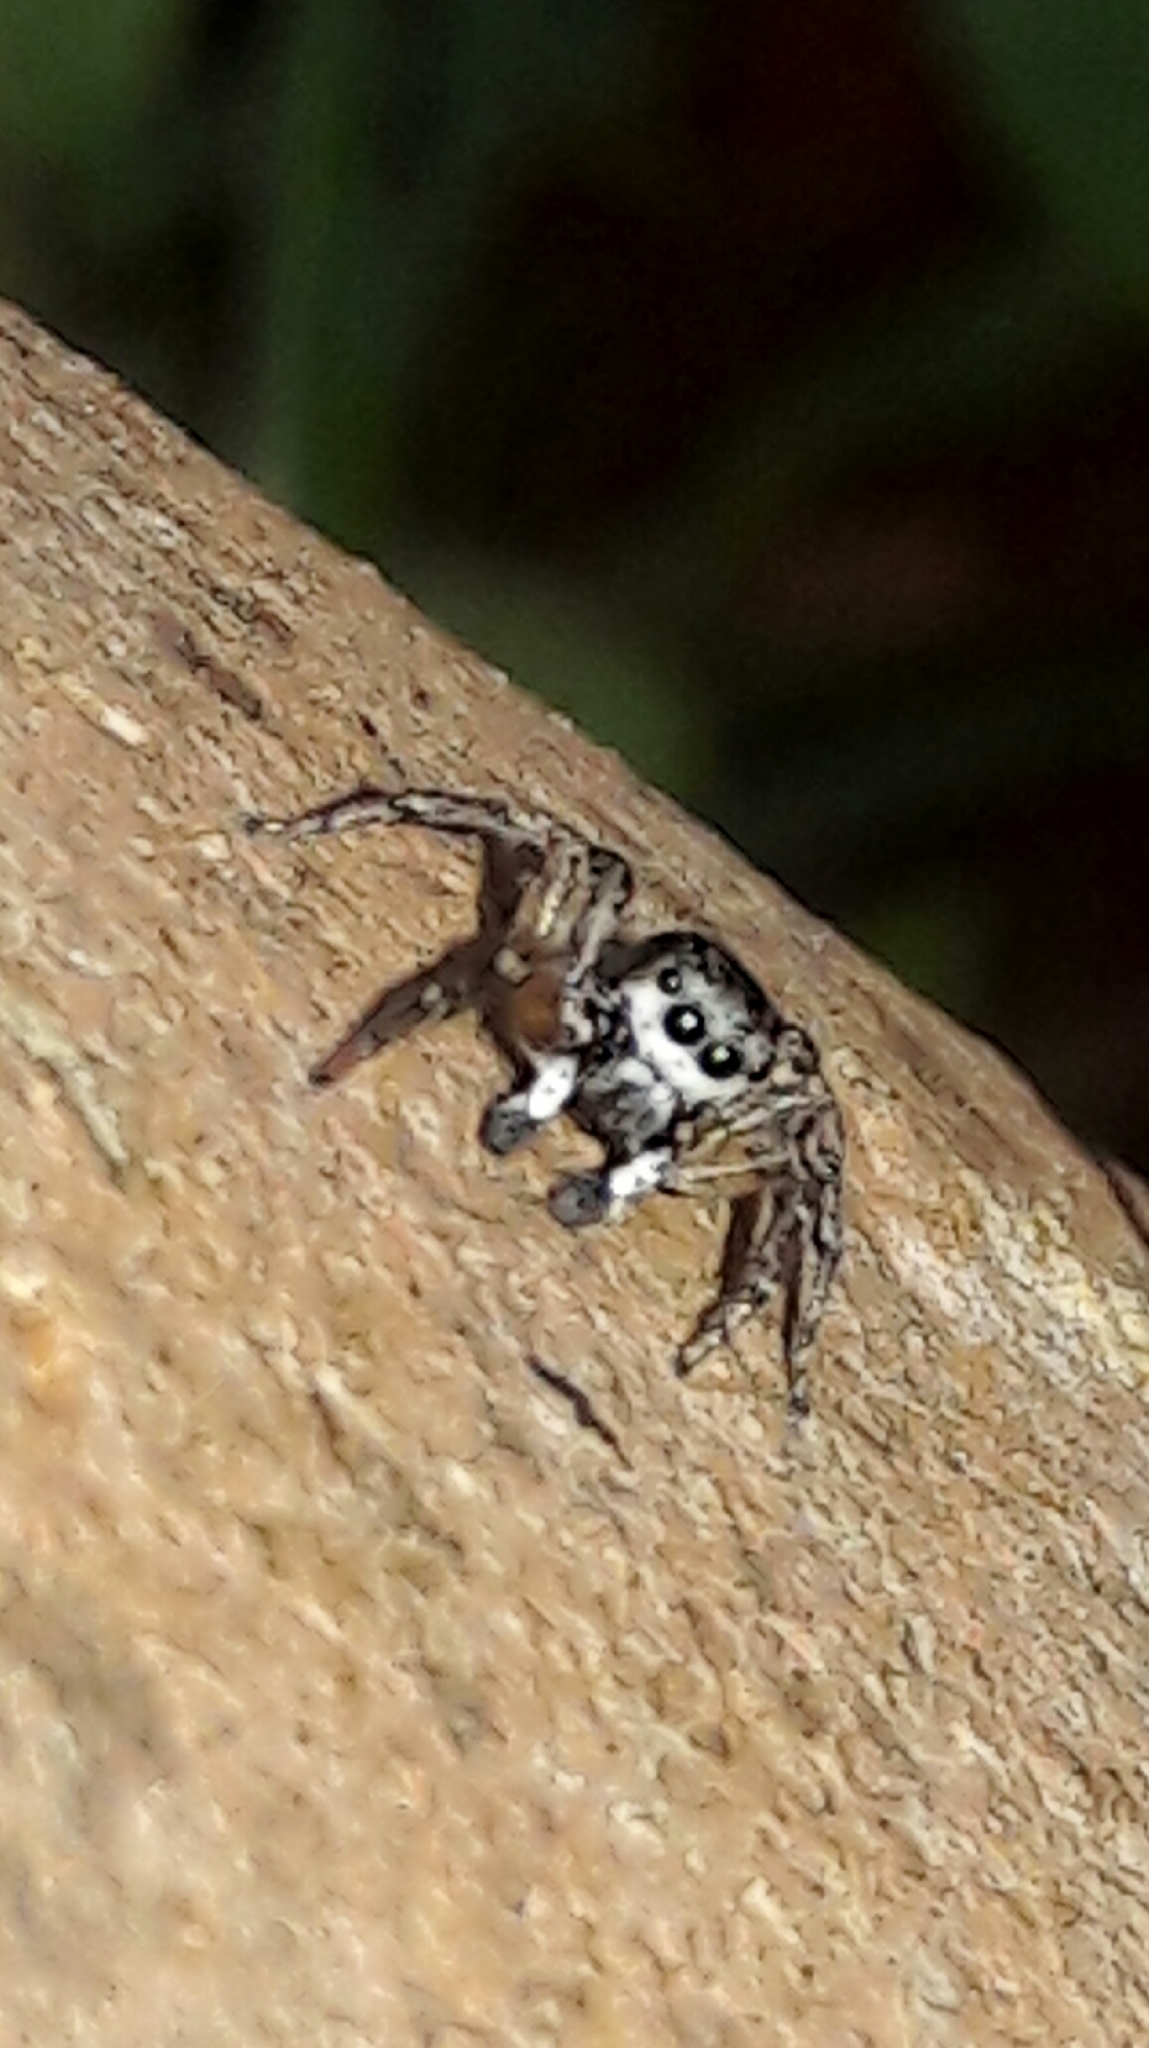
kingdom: Animalia
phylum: Arthropoda
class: Arachnida
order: Araneae
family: Salticidae
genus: Sumampattus
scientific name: Sumampattus quinqueradiatus
